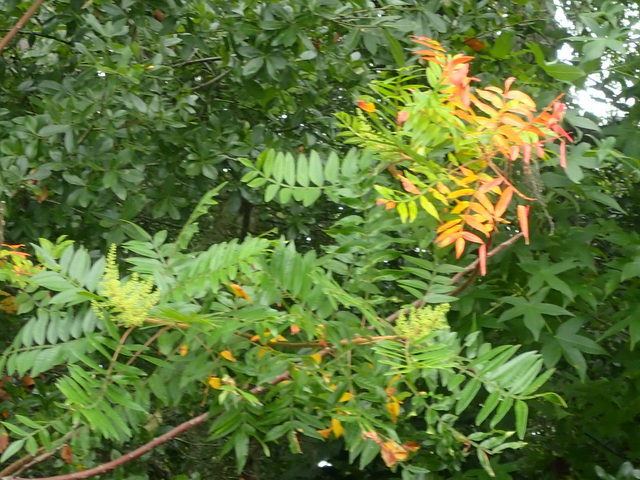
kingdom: Plantae
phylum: Tracheophyta
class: Magnoliopsida
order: Sapindales
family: Anacardiaceae
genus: Rhus
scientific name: Rhus copallina
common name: Shining sumac
